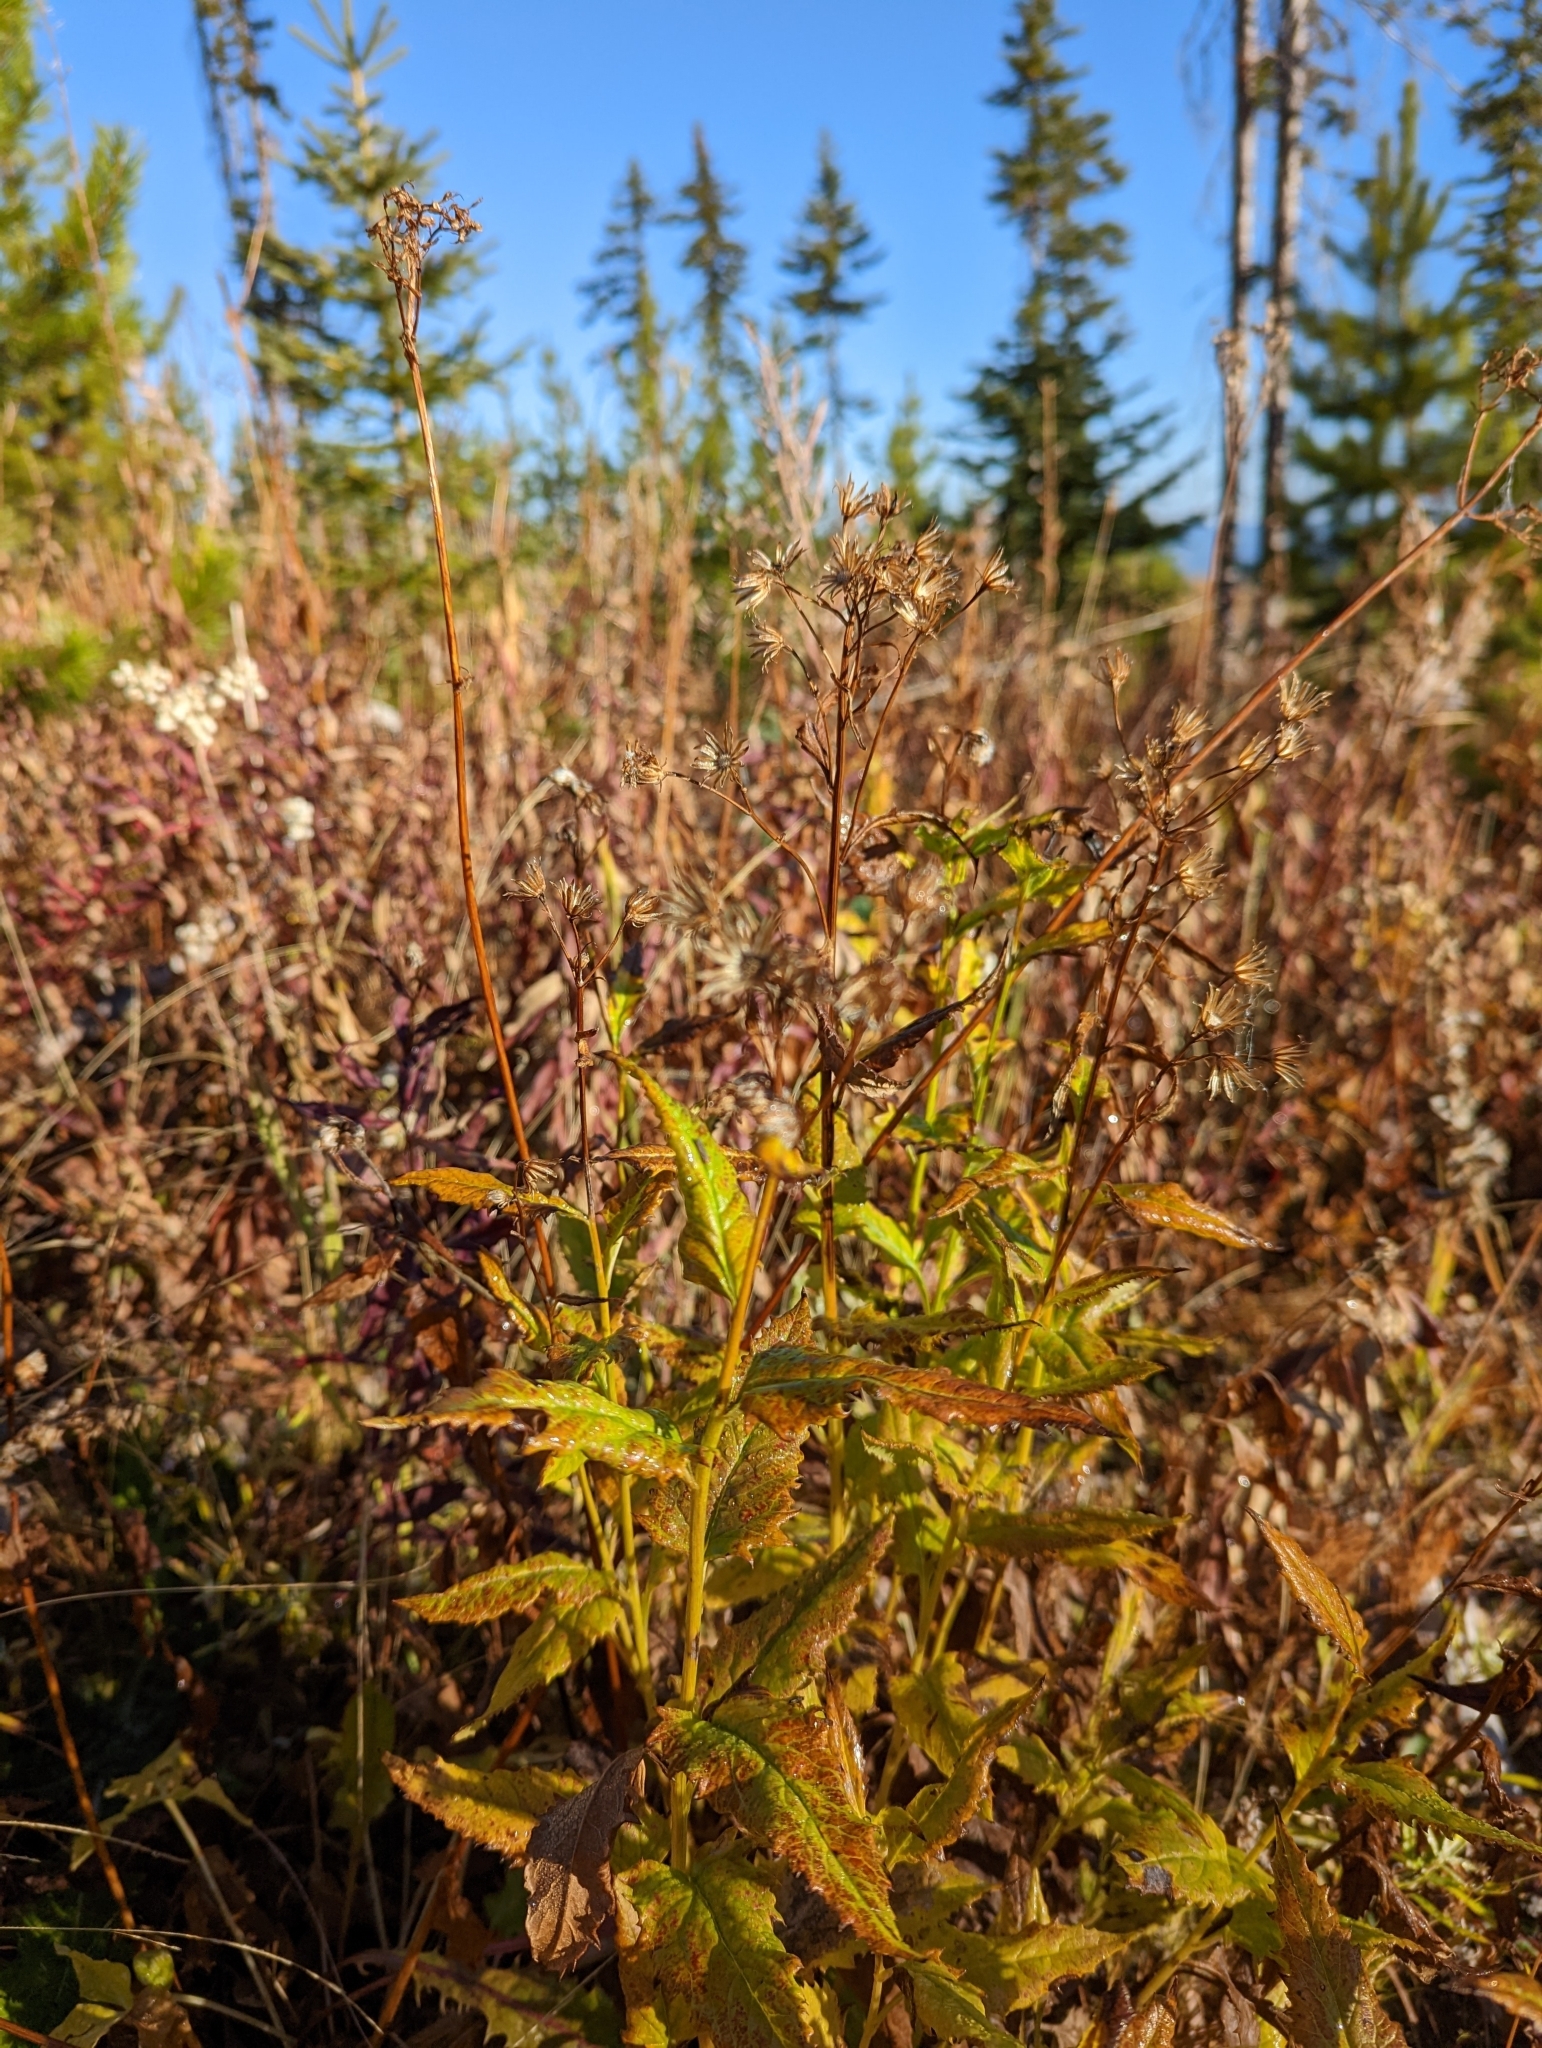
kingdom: Plantae
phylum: Tracheophyta
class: Magnoliopsida
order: Asterales
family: Asteraceae
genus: Senecio
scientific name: Senecio triangularis
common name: Arrowleaf butterweed
